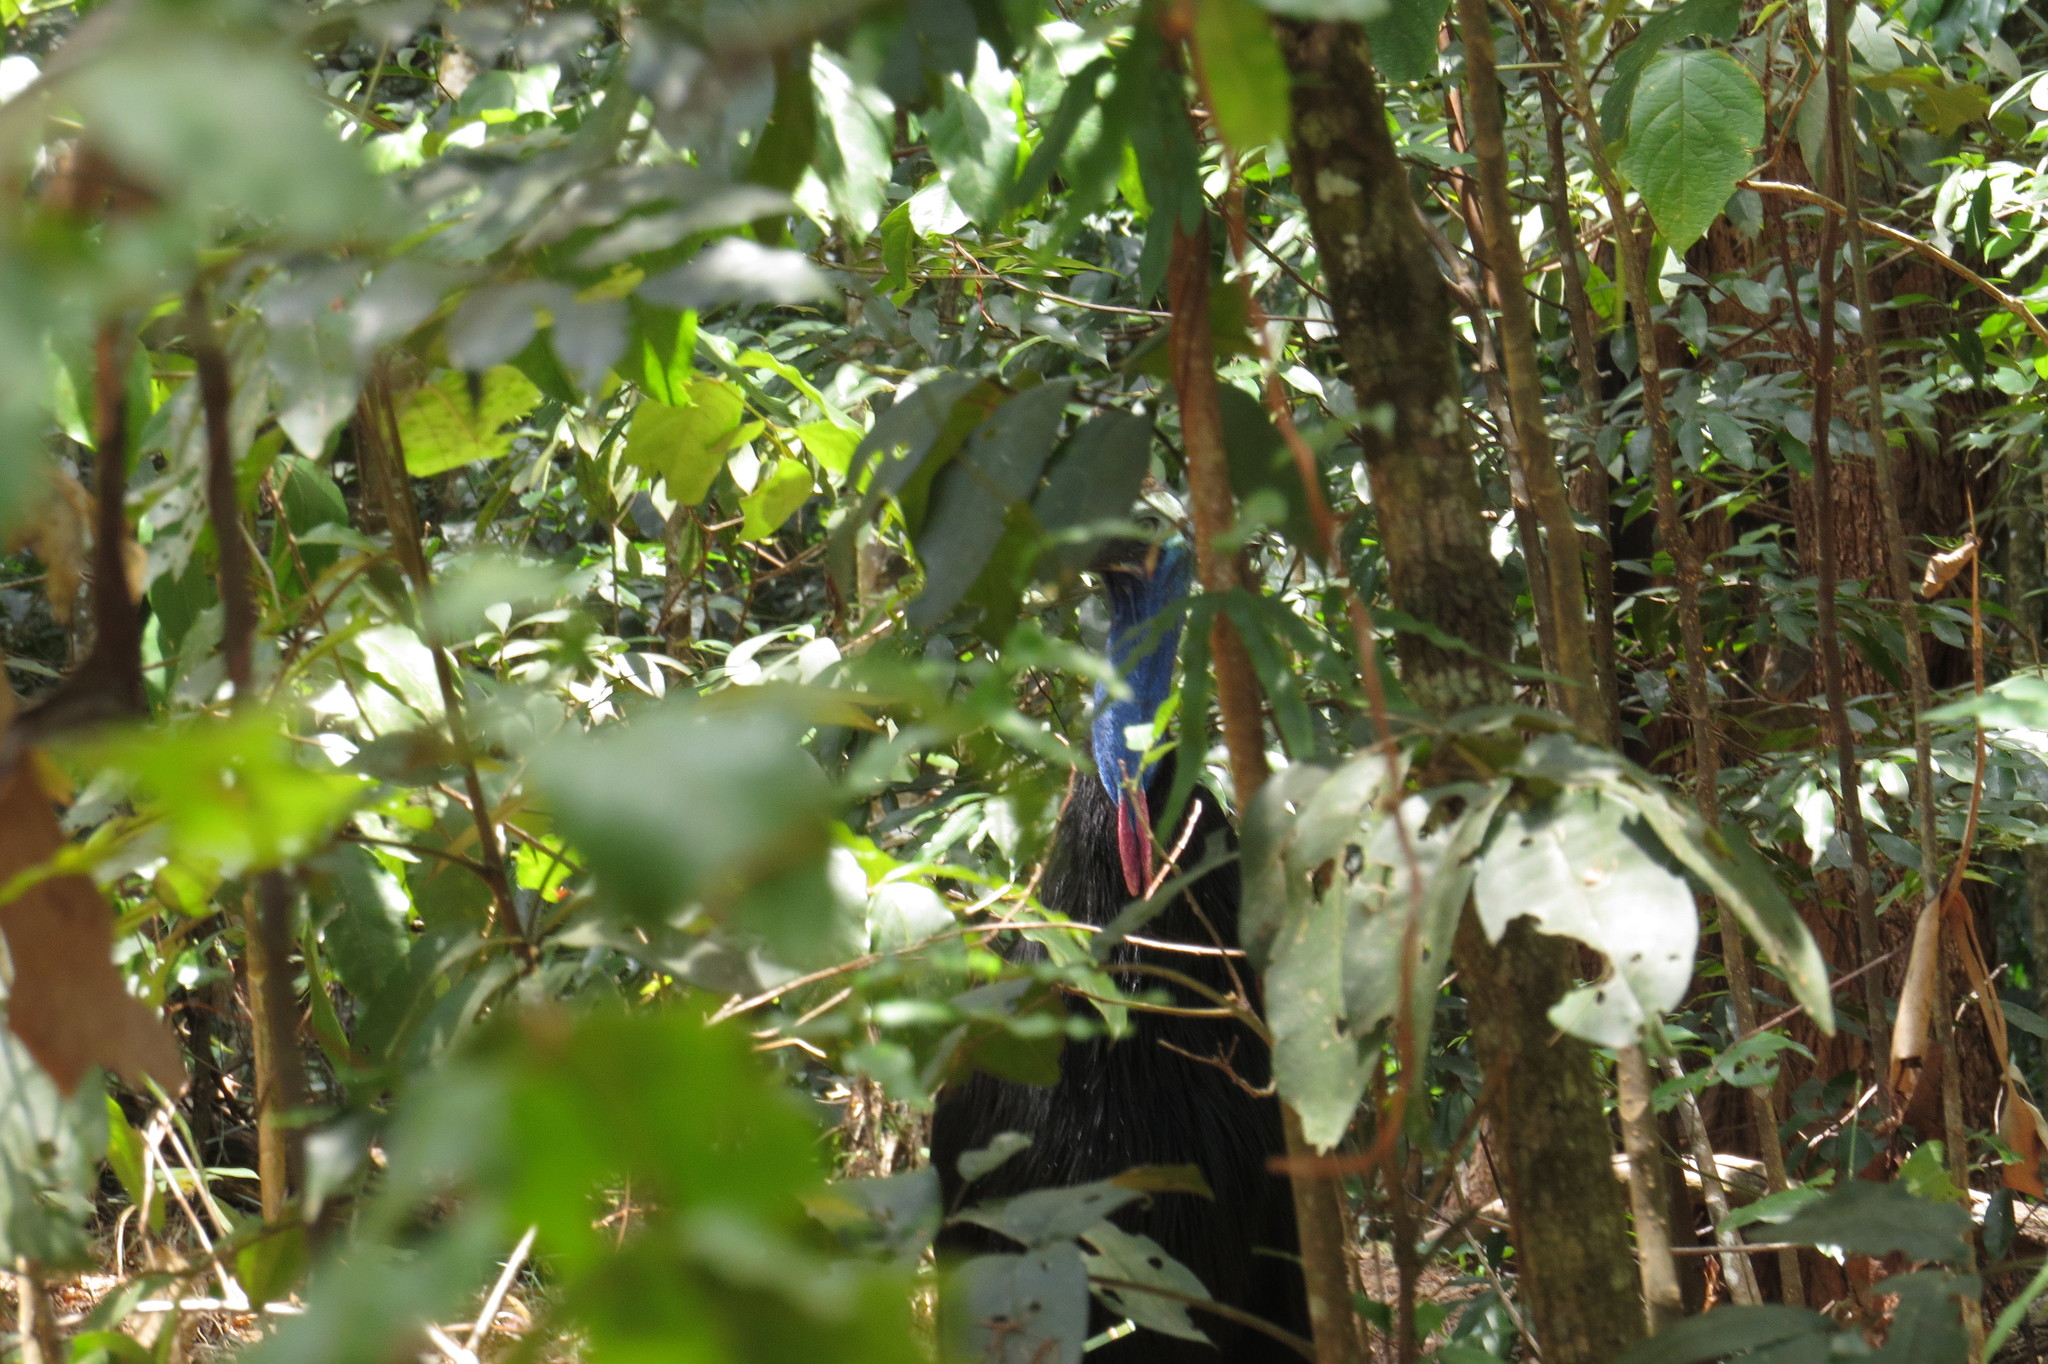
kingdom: Animalia
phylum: Chordata
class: Aves
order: Casuariiformes
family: Casuariidae
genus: Casuarius
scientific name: Casuarius casuarius
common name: Southern cassowary
